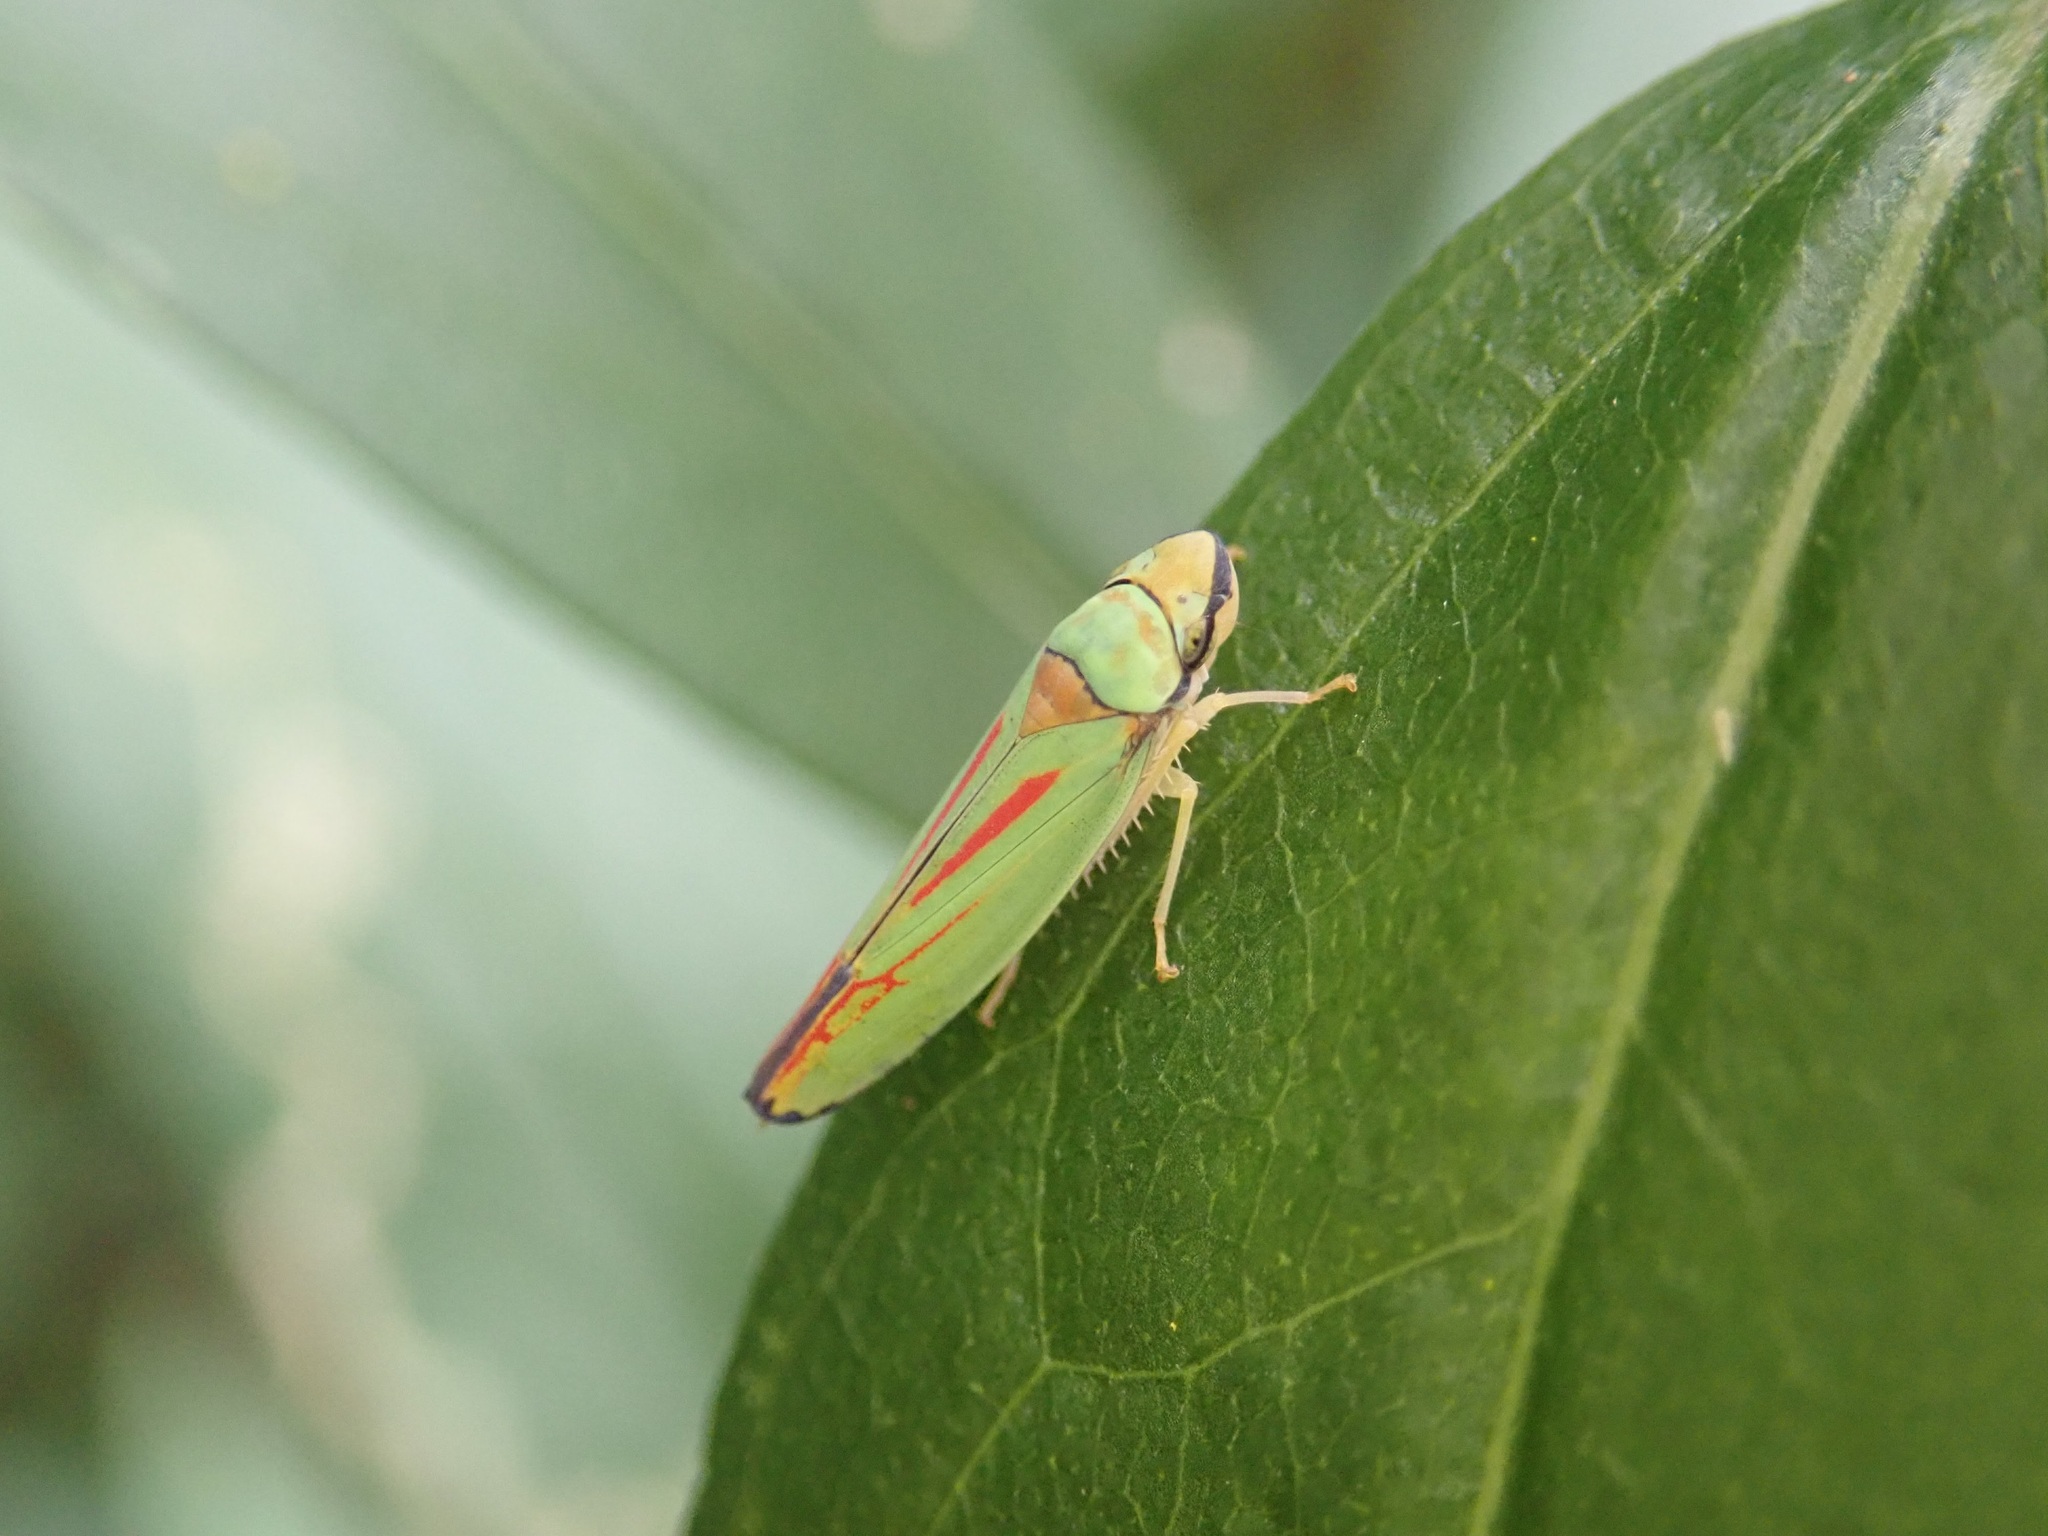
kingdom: Animalia
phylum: Arthropoda
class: Insecta
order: Hemiptera
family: Cicadellidae
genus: Graphocephala
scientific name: Graphocephala fennahi
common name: Rhododendron leafhopper
